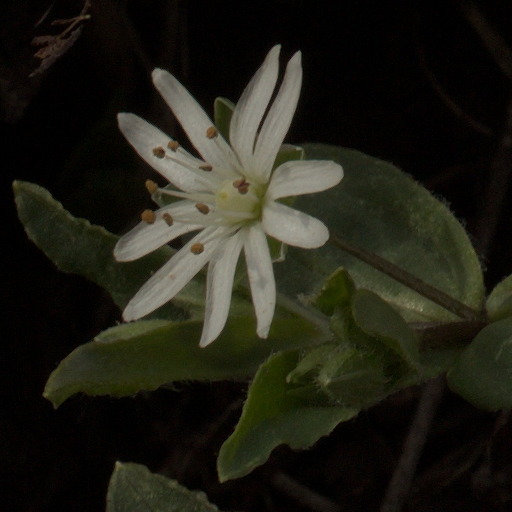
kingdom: Plantae
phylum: Tracheophyta
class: Magnoliopsida
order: Caryophyllales
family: Caryophyllaceae
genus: Stellaria
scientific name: Stellaria pubera
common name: Star chickweed
